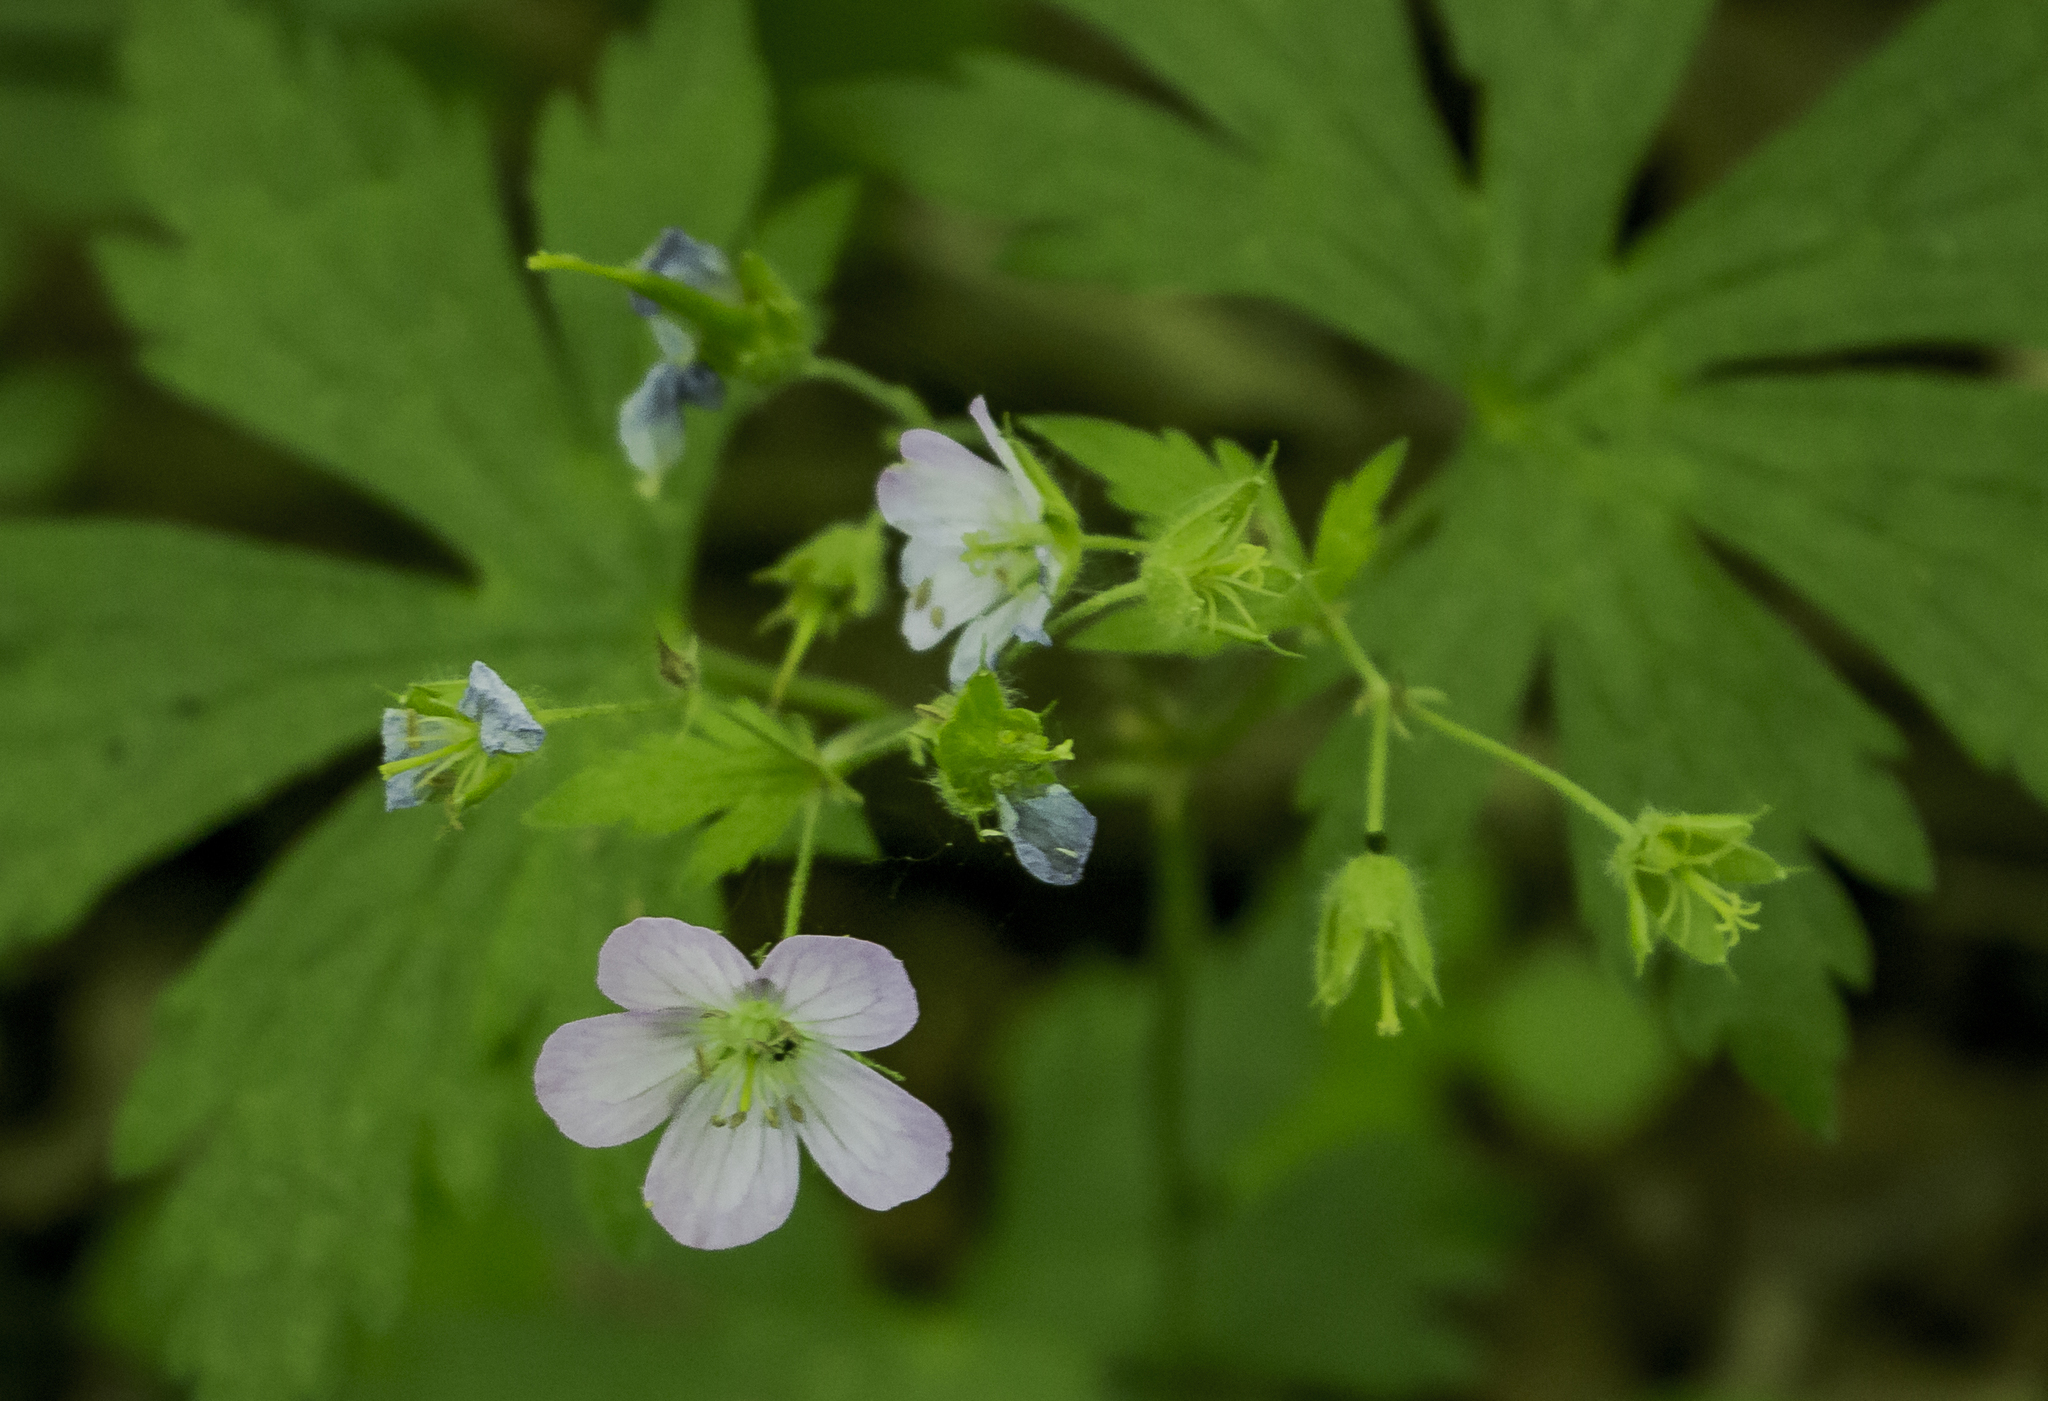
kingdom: Plantae
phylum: Tracheophyta
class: Magnoliopsida
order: Geraniales
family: Geraniaceae
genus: Geranium
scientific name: Geranium maculatum
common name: Spotted geranium
